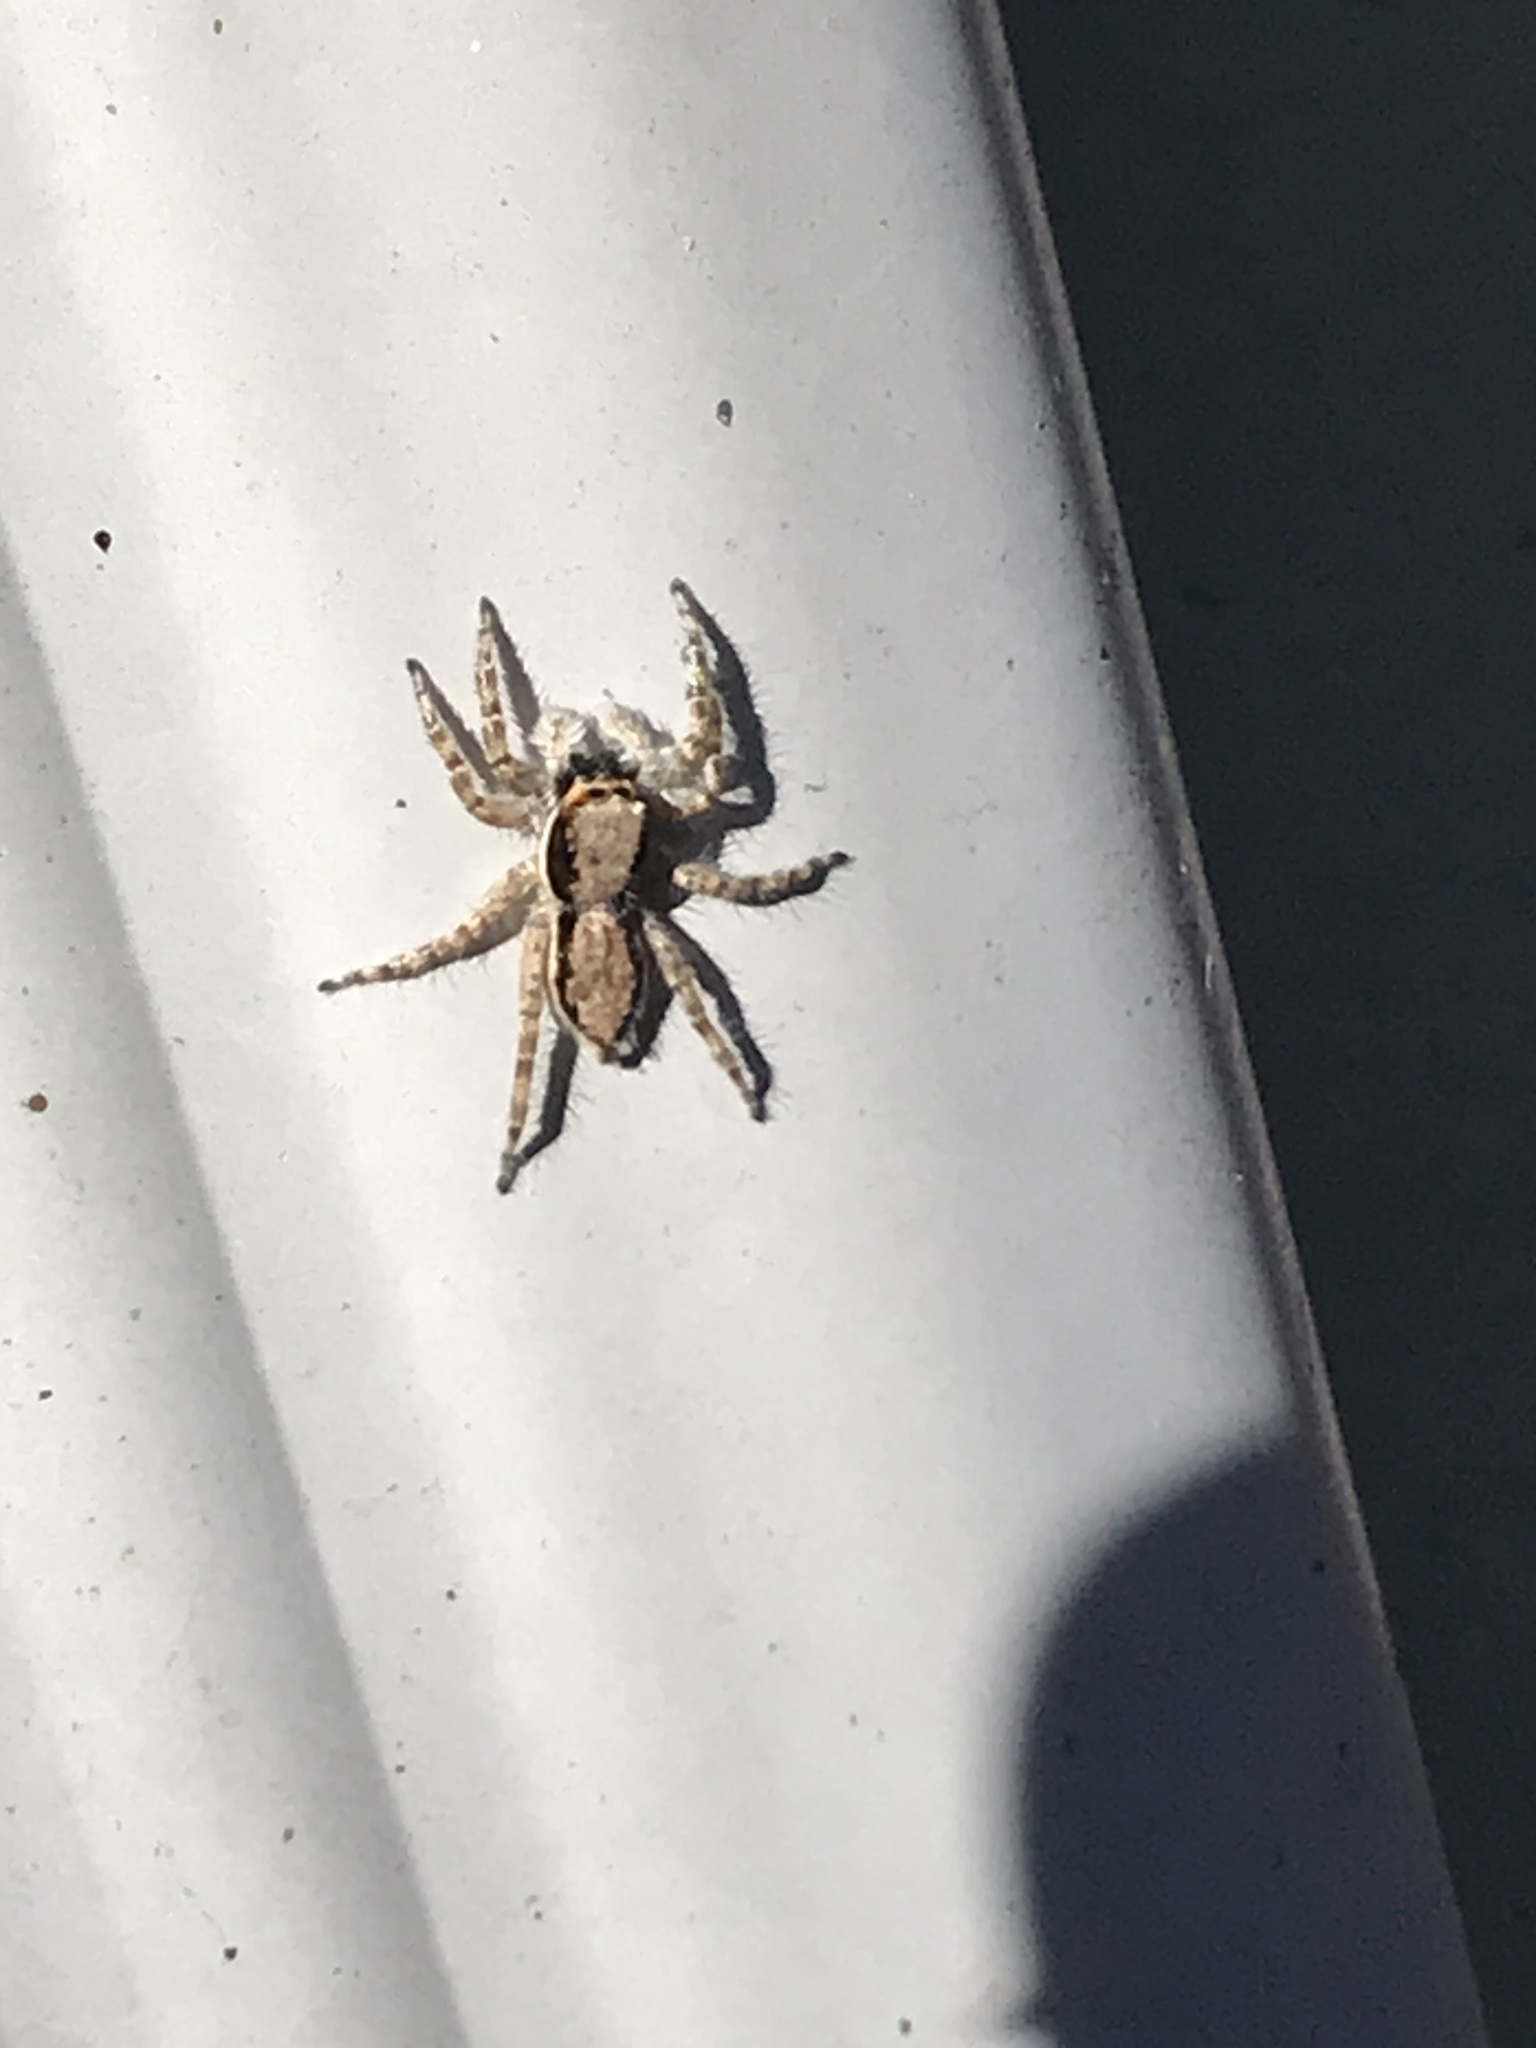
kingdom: Animalia
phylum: Arthropoda
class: Arachnida
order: Araneae
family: Salticidae
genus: Menemerus
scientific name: Menemerus bivittatus
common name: Gray wall jumper
